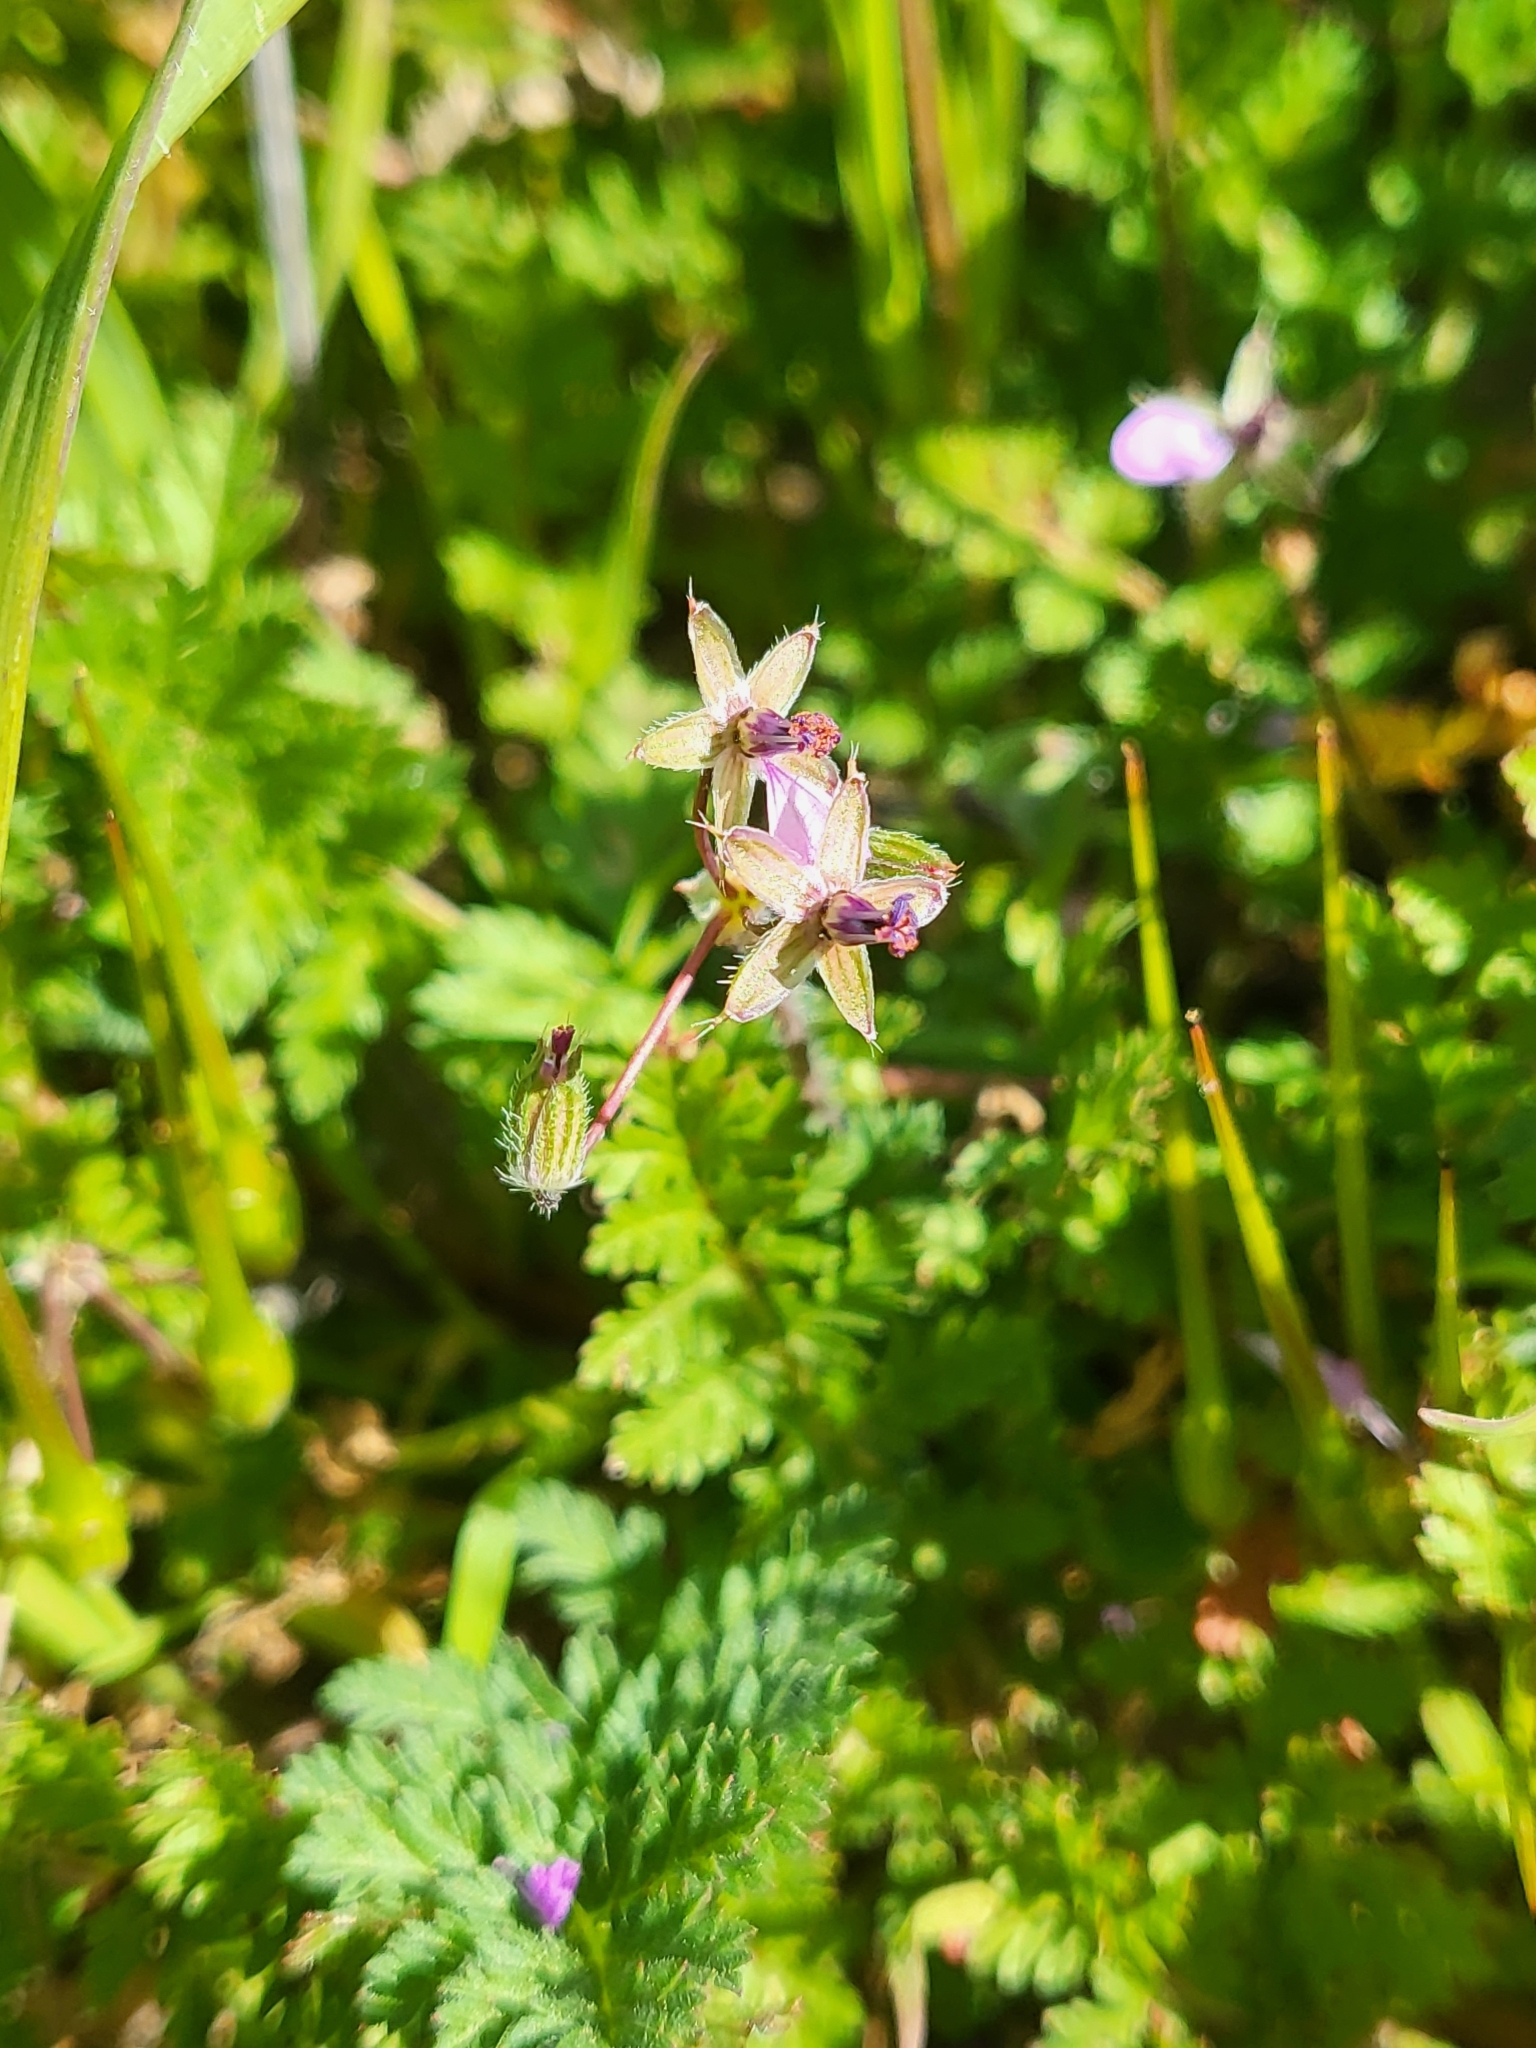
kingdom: Plantae
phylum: Tracheophyta
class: Magnoliopsida
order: Geraniales
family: Geraniaceae
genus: Erodium
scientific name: Erodium cicutarium
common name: Common stork's-bill
